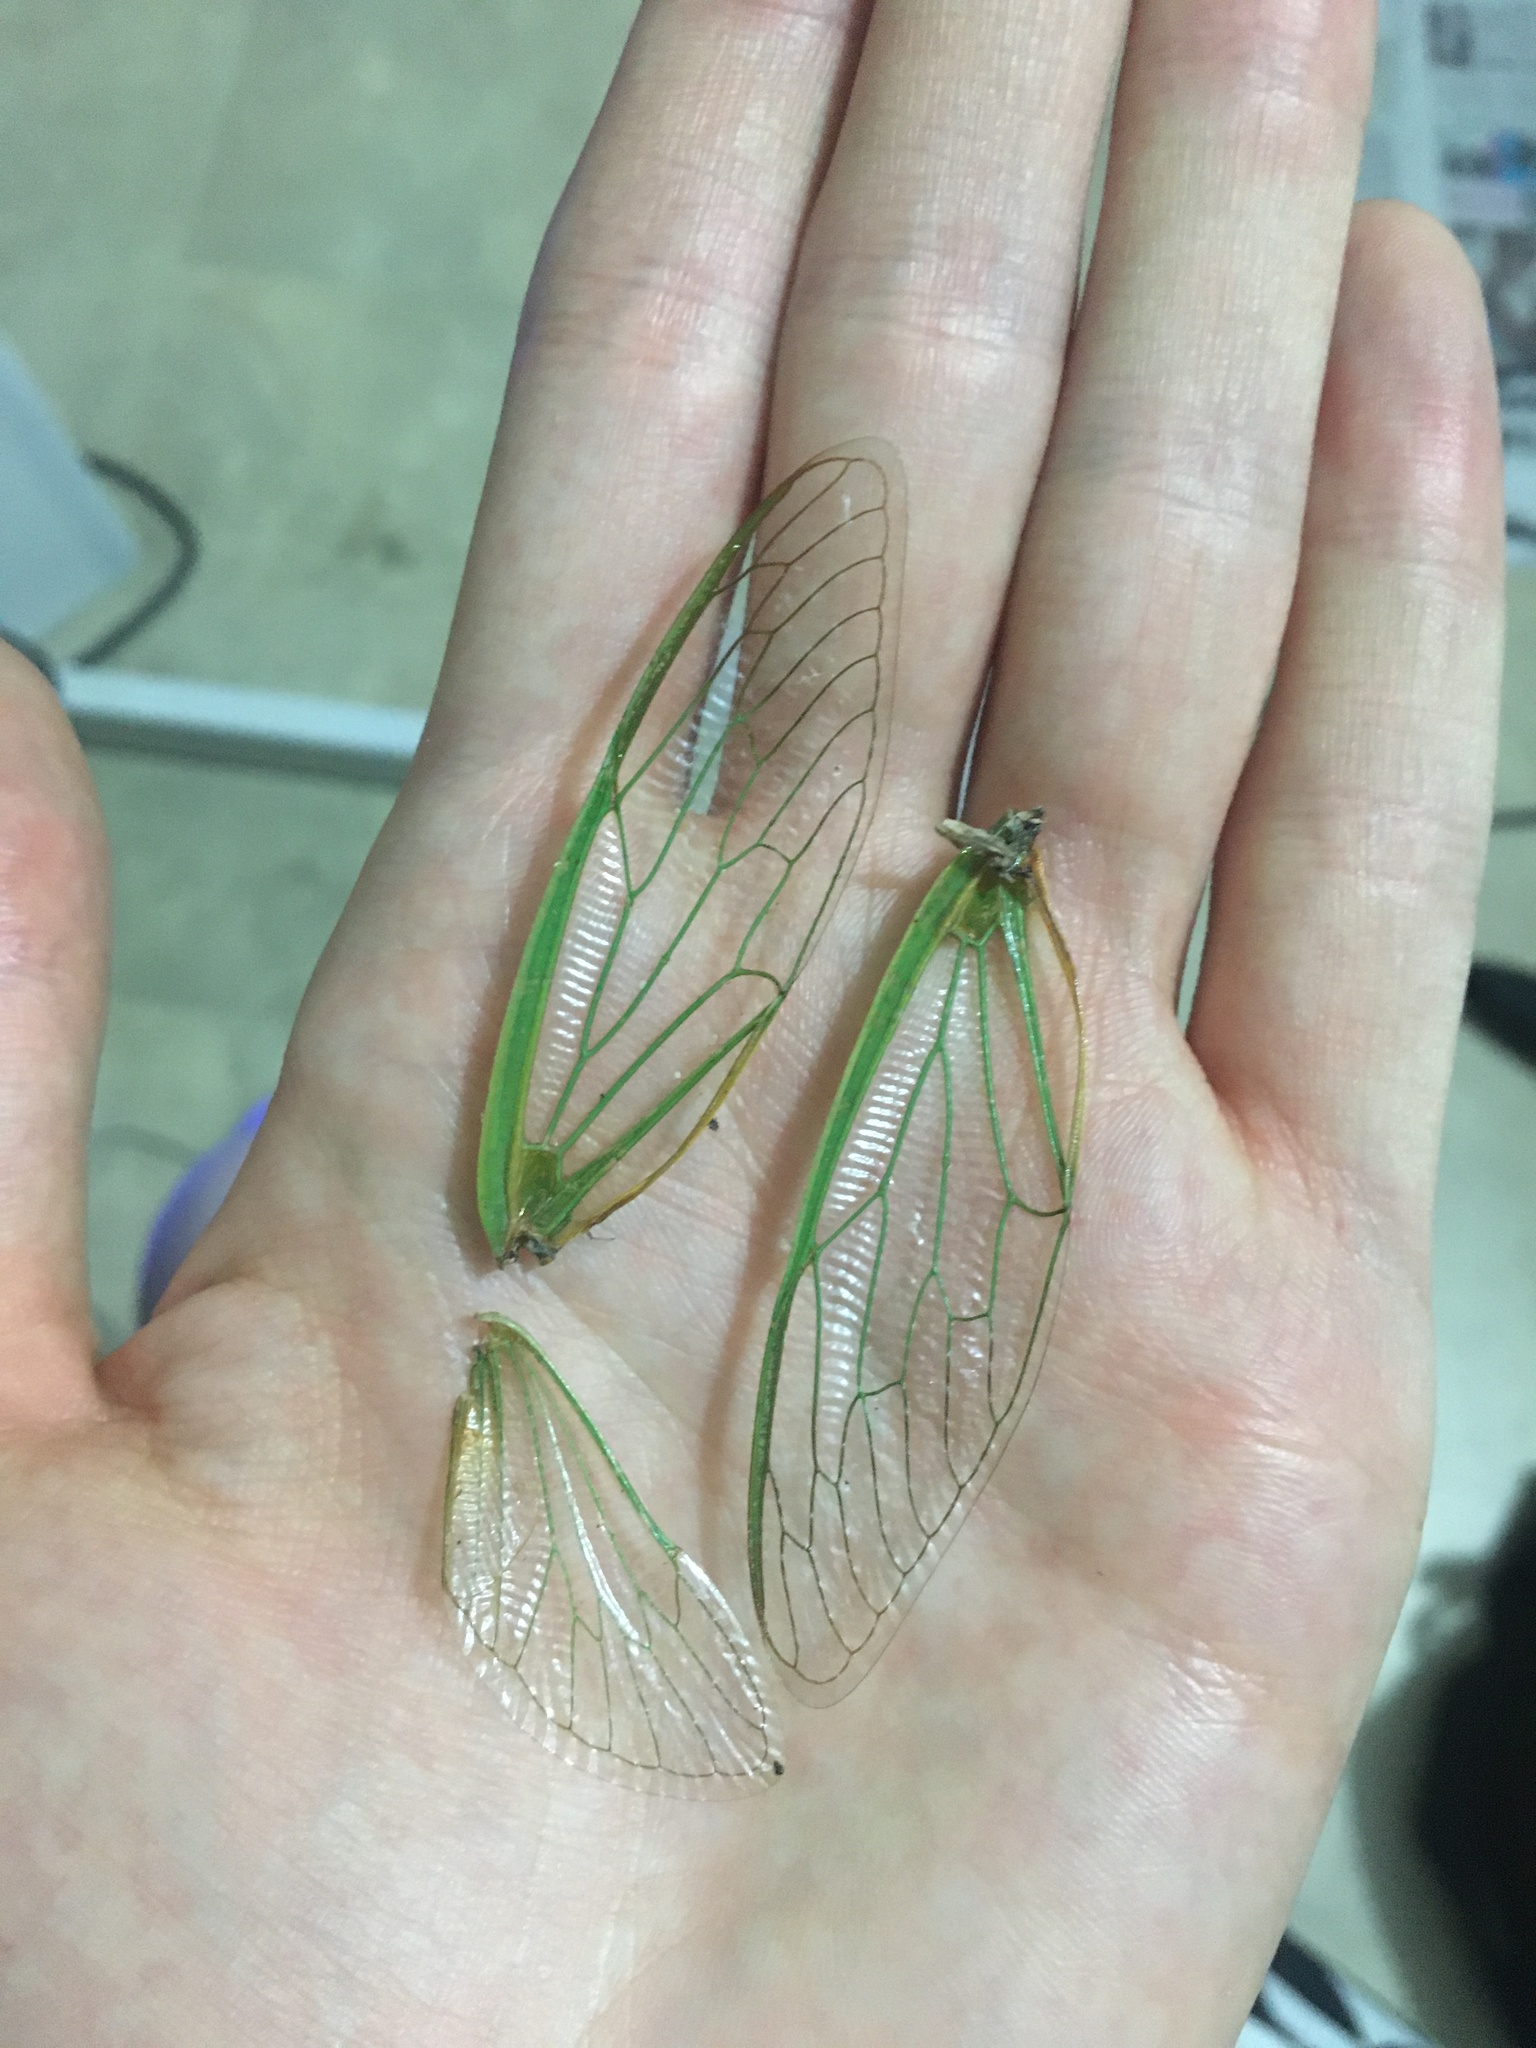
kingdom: Animalia
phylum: Arthropoda
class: Insecta
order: Hemiptera
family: Cicadidae
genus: Cyclochila
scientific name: Cyclochila australasiae
